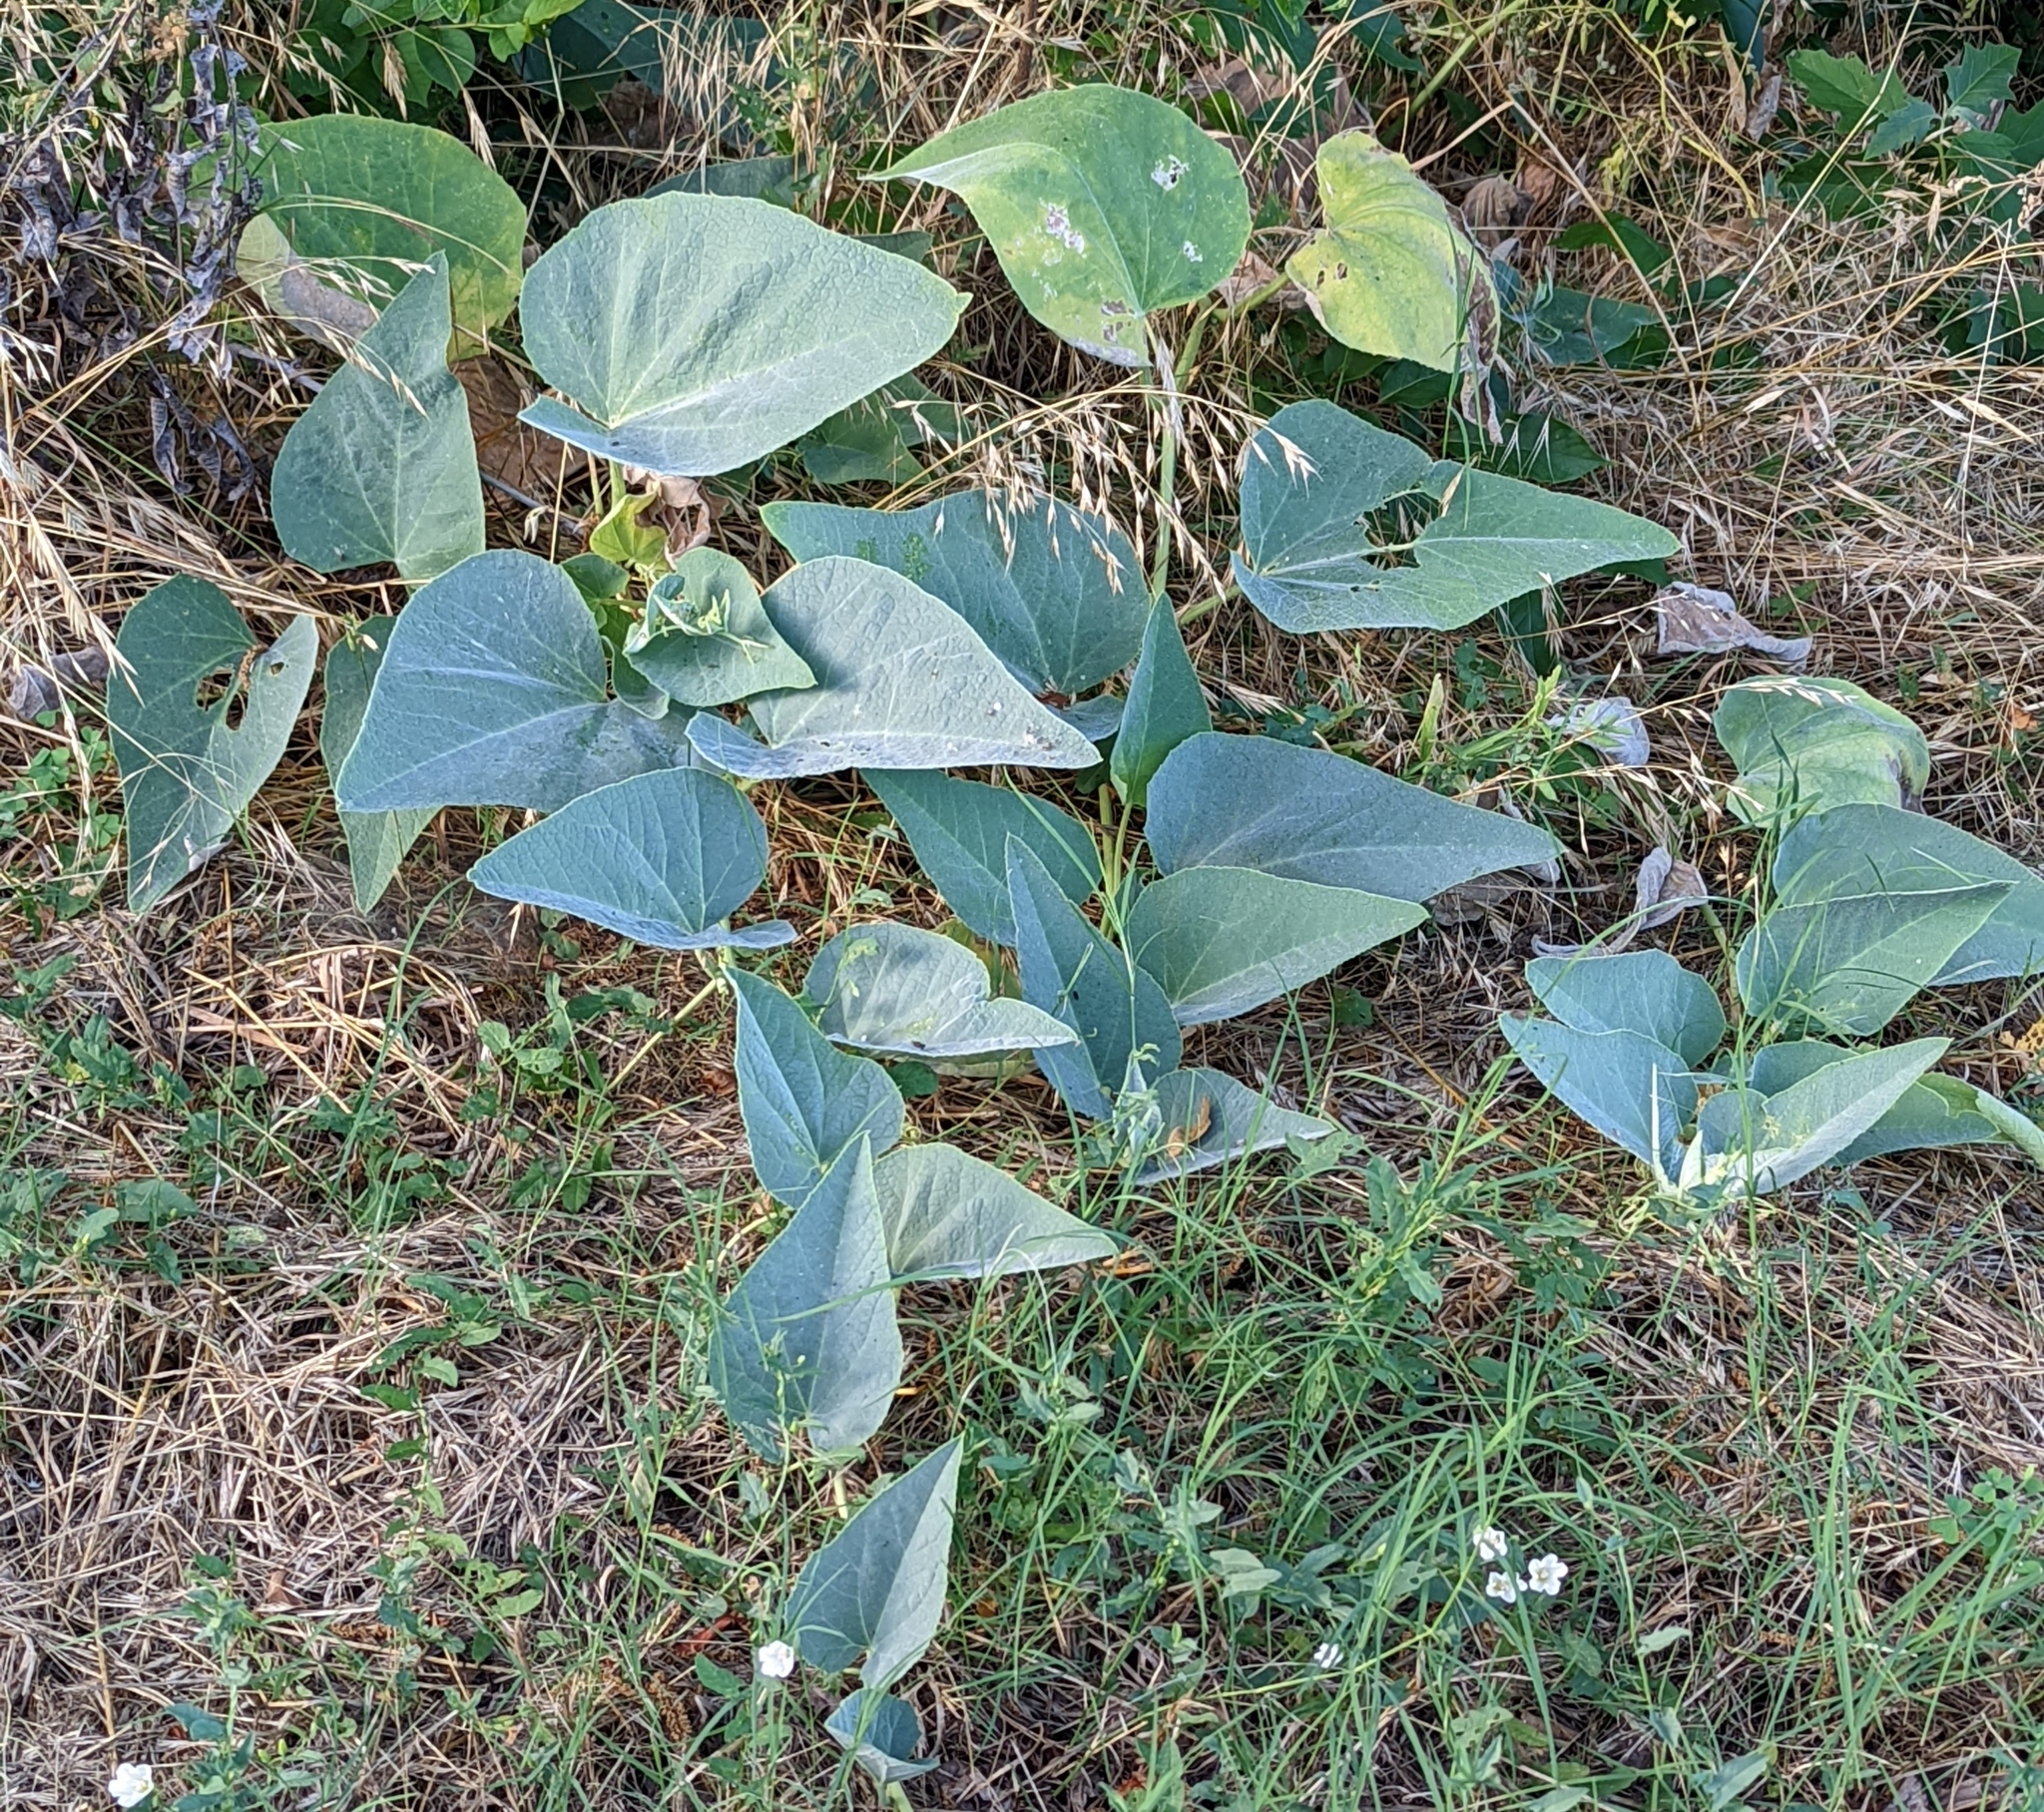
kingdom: Plantae
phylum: Tracheophyta
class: Magnoliopsida
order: Cucurbitales
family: Cucurbitaceae
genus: Cucurbita
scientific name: Cucurbita foetidissima
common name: Buffalo gourd
